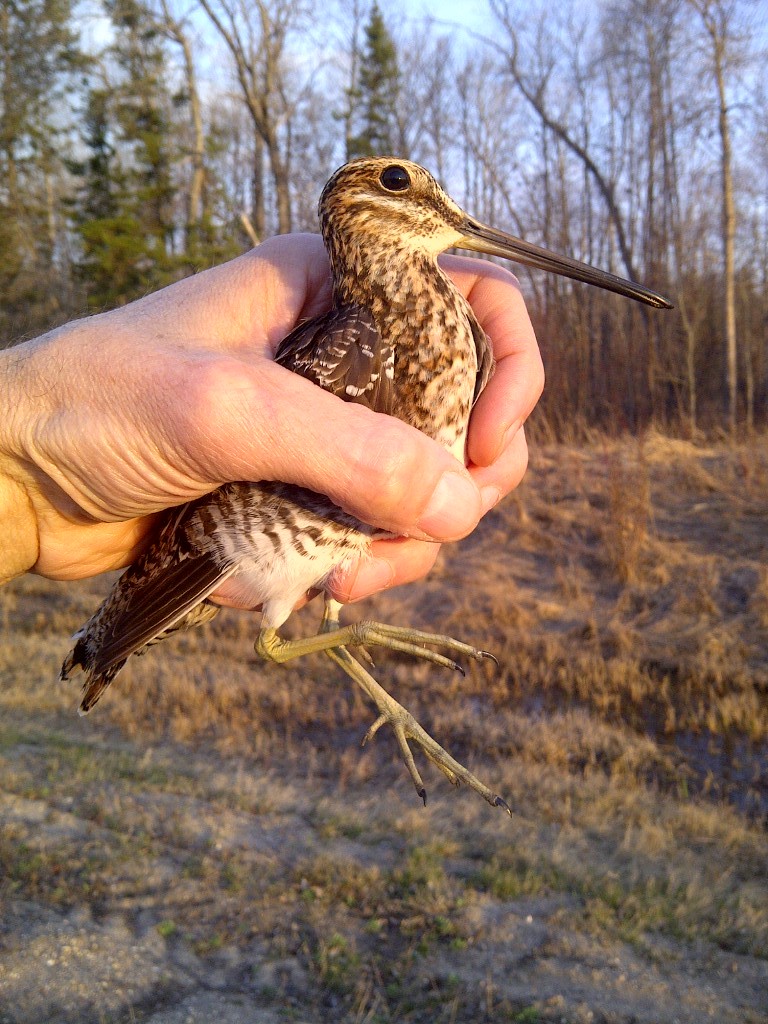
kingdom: Animalia
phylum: Chordata
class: Aves
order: Charadriiformes
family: Scolopacidae
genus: Gallinago
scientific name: Gallinago delicata
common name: Wilson's snipe
